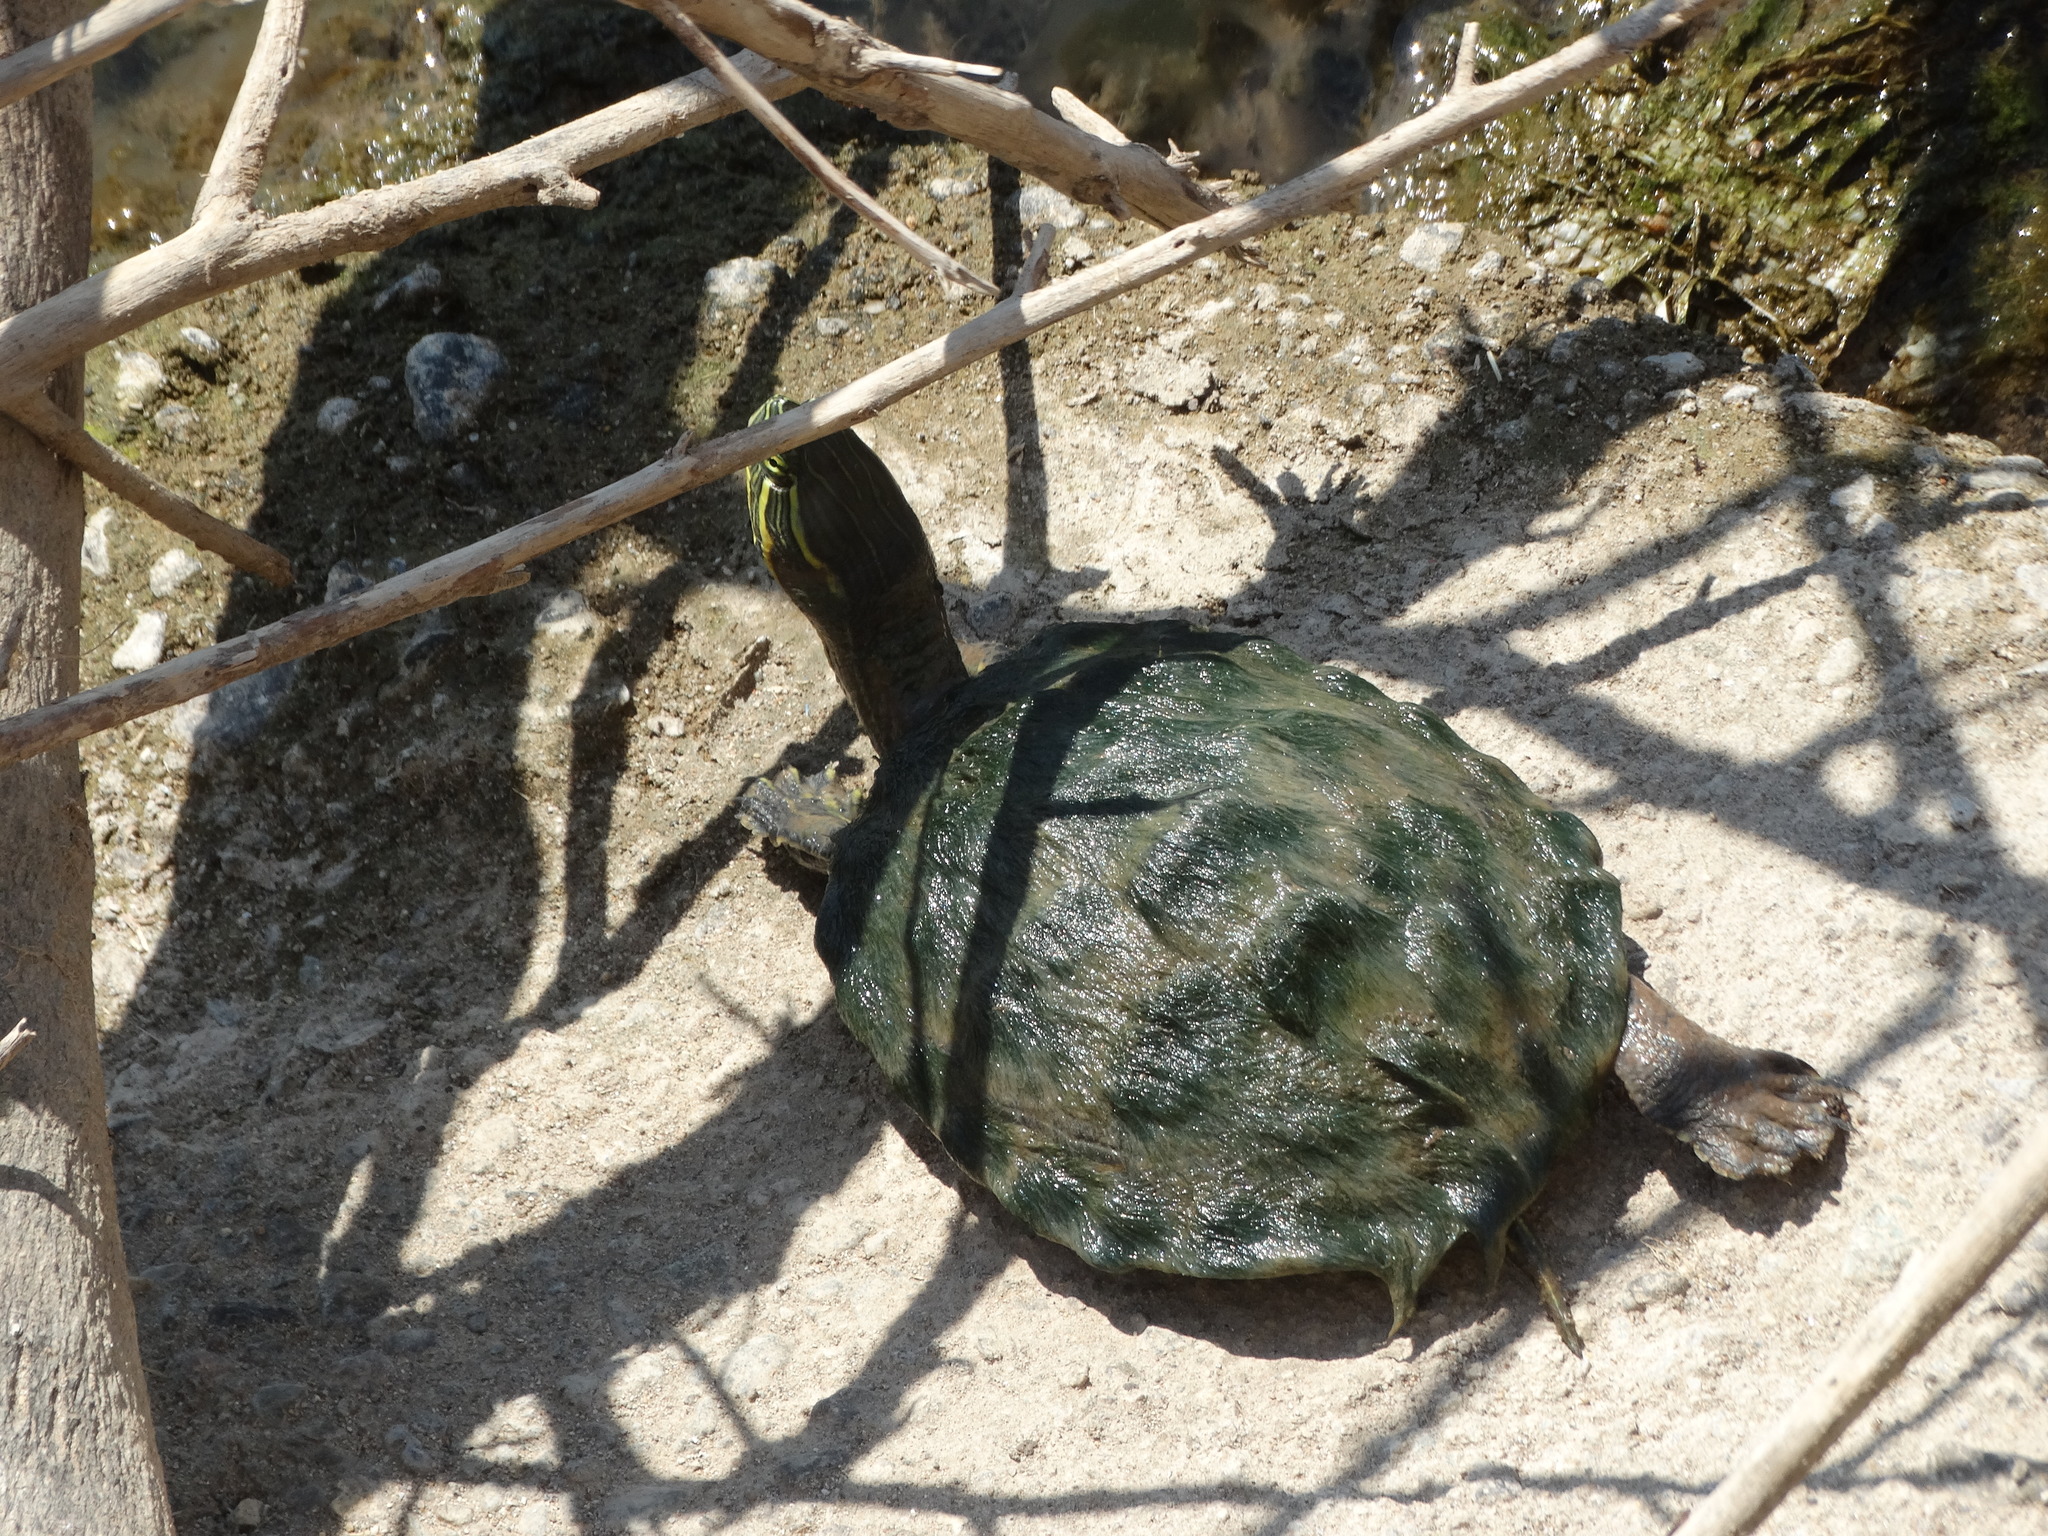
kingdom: Animalia
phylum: Chordata
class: Testudines
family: Emydidae
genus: Trachemys
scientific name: Trachemys grayi
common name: Gray's slider
